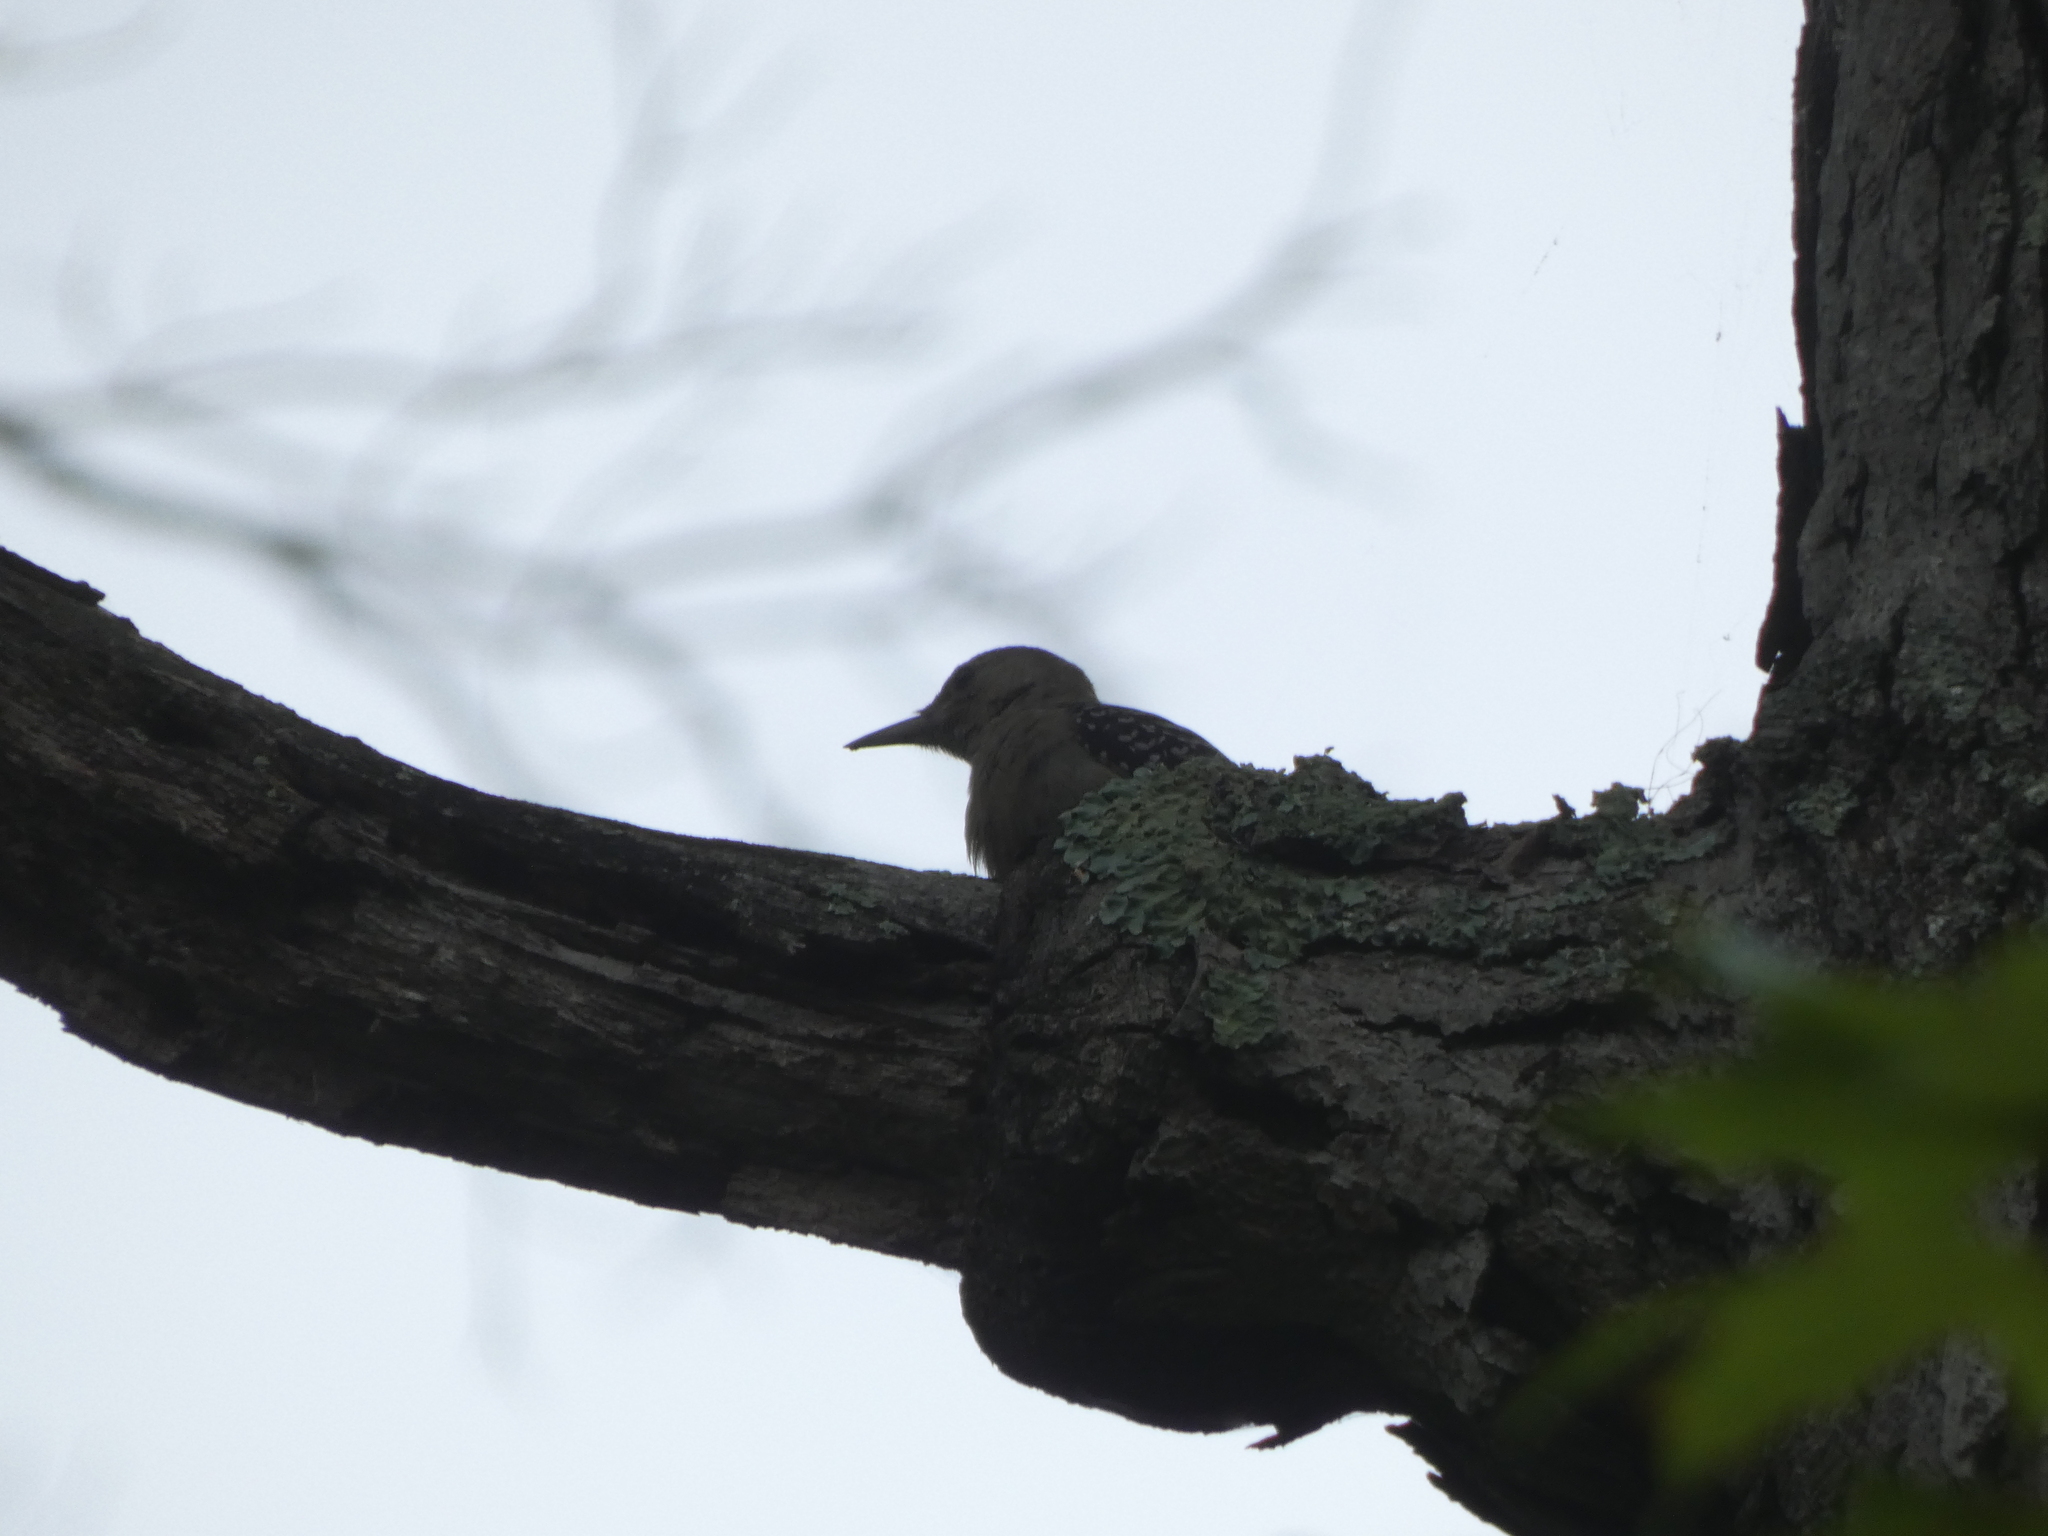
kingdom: Animalia
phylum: Chordata
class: Aves
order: Piciformes
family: Picidae
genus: Melanerpes
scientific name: Melanerpes carolinus
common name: Red-bellied woodpecker
